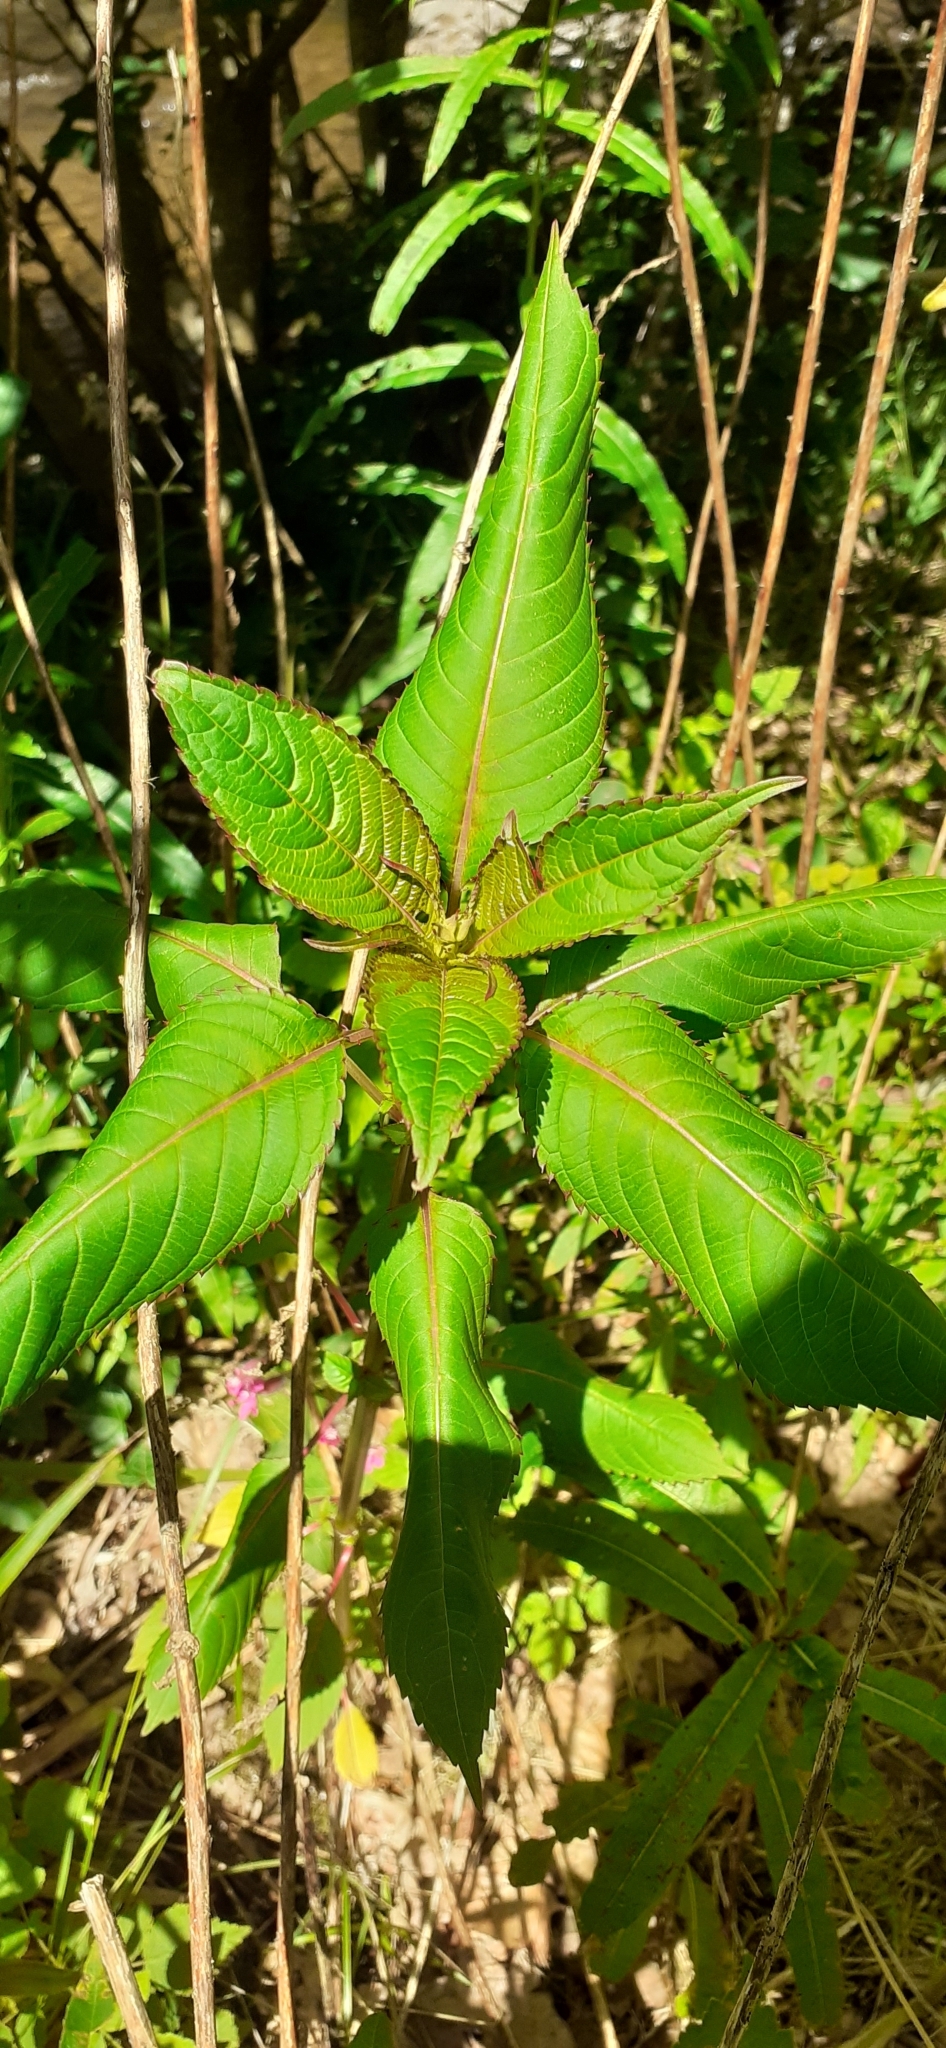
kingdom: Plantae
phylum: Tracheophyta
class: Magnoliopsida
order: Ericales
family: Balsaminaceae
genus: Impatiens
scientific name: Impatiens glandulifera
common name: Himalayan balsam
